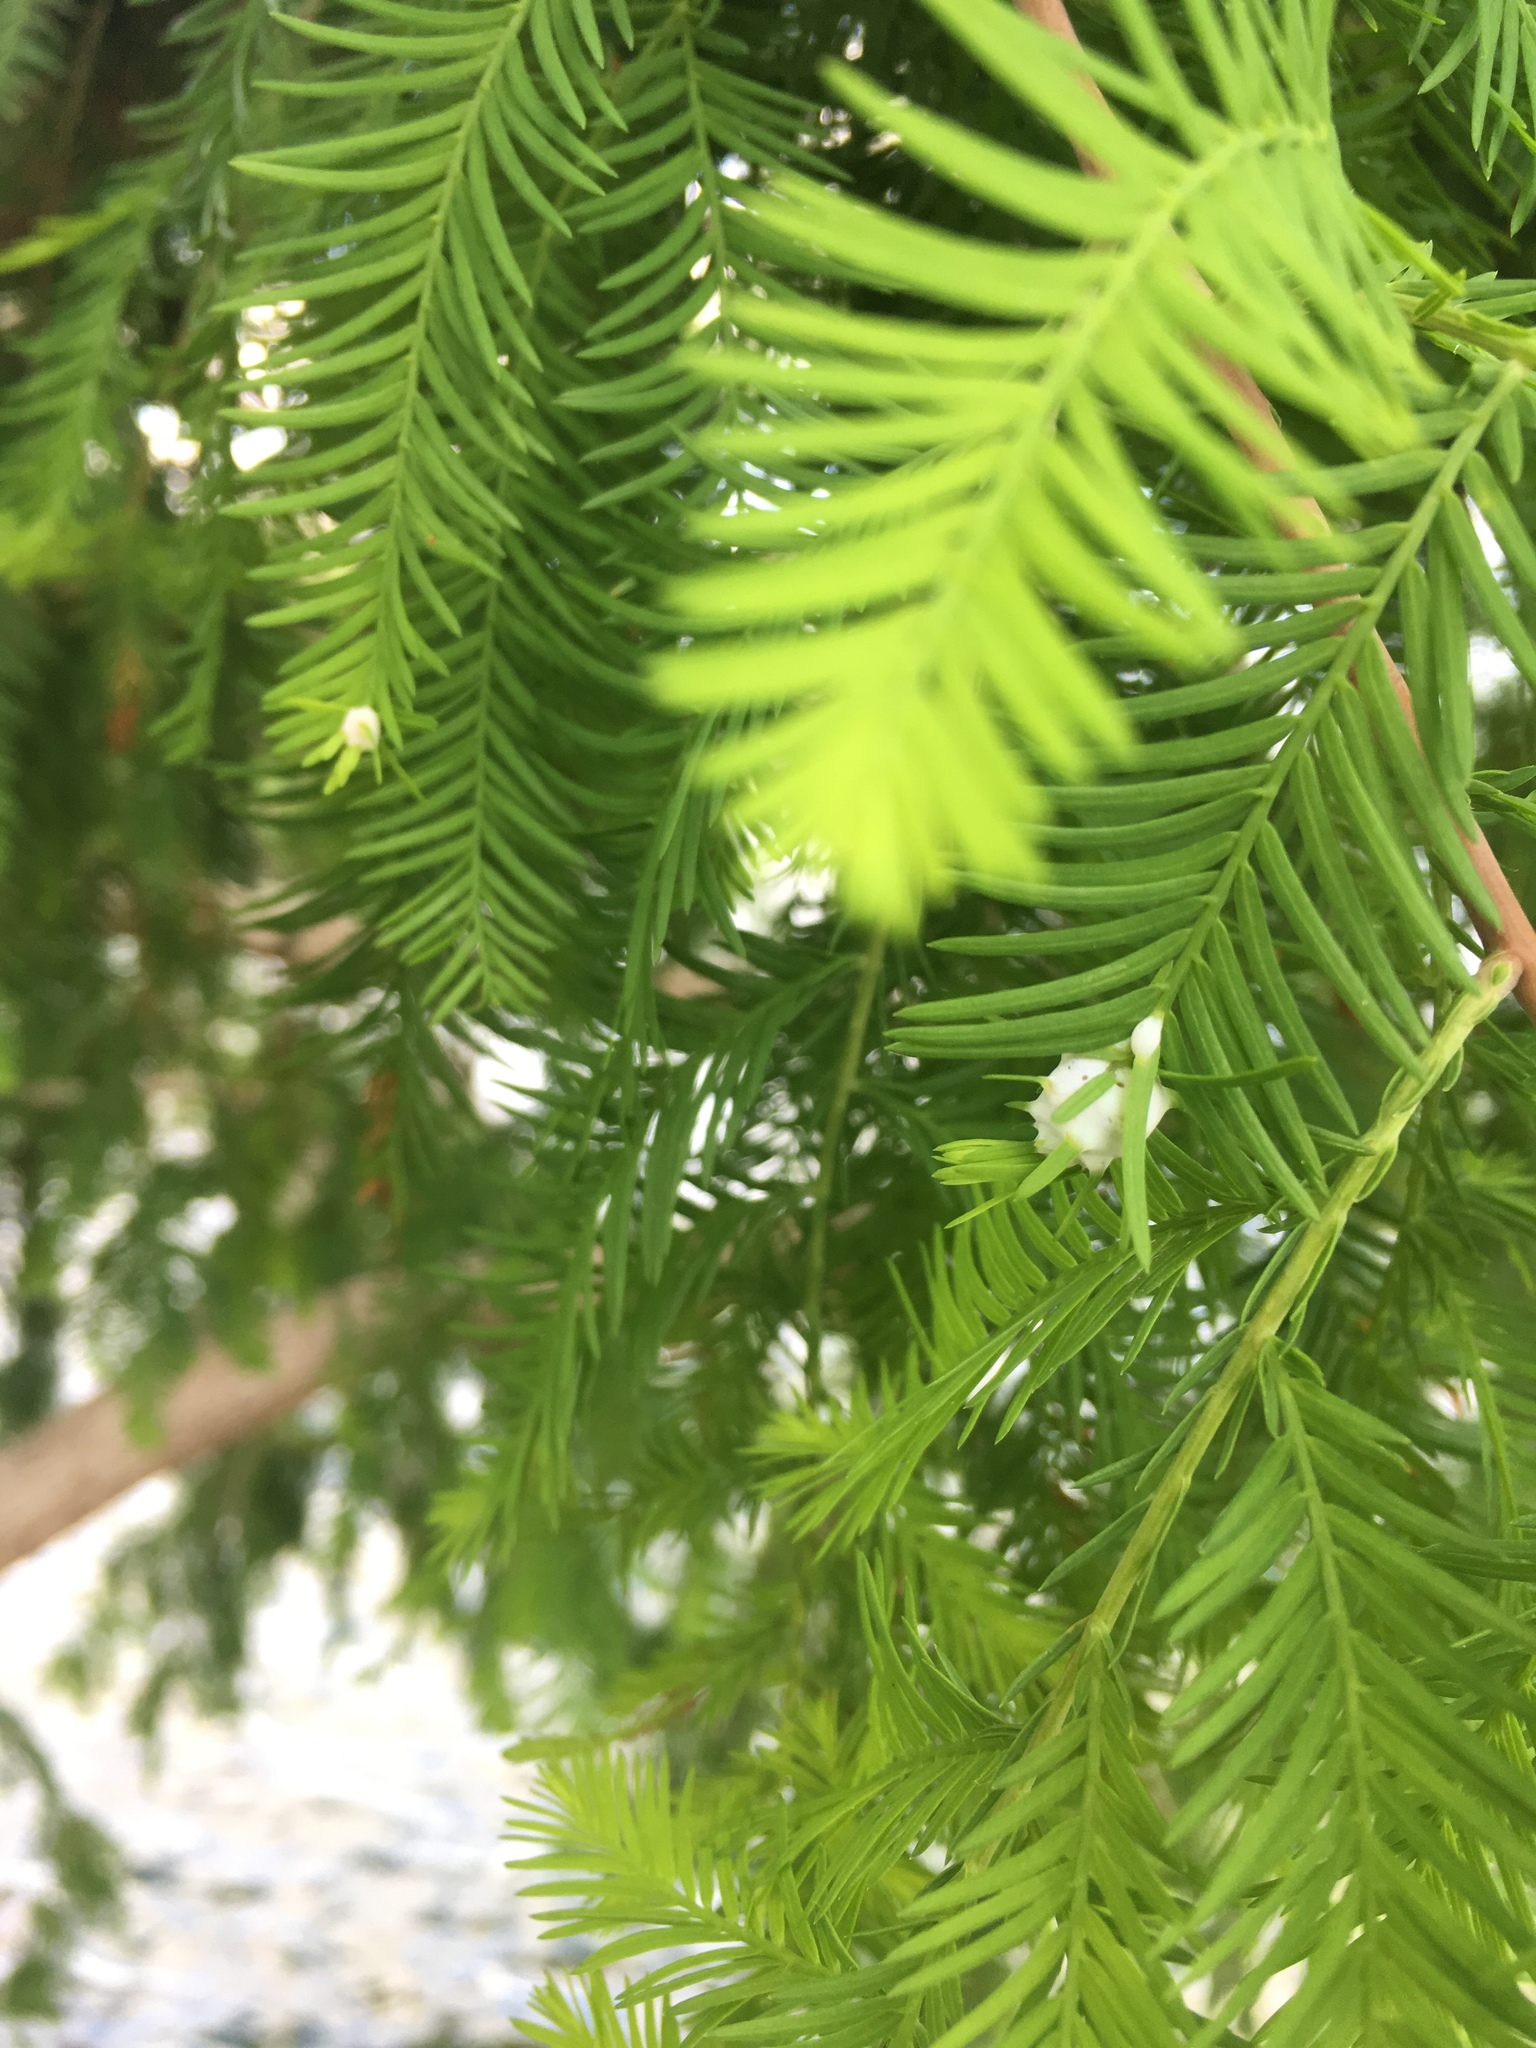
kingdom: Animalia
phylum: Arthropoda
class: Insecta
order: Diptera
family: Cecidomyiidae
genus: Taxodiomyia
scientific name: Taxodiomyia cupressiananassa
